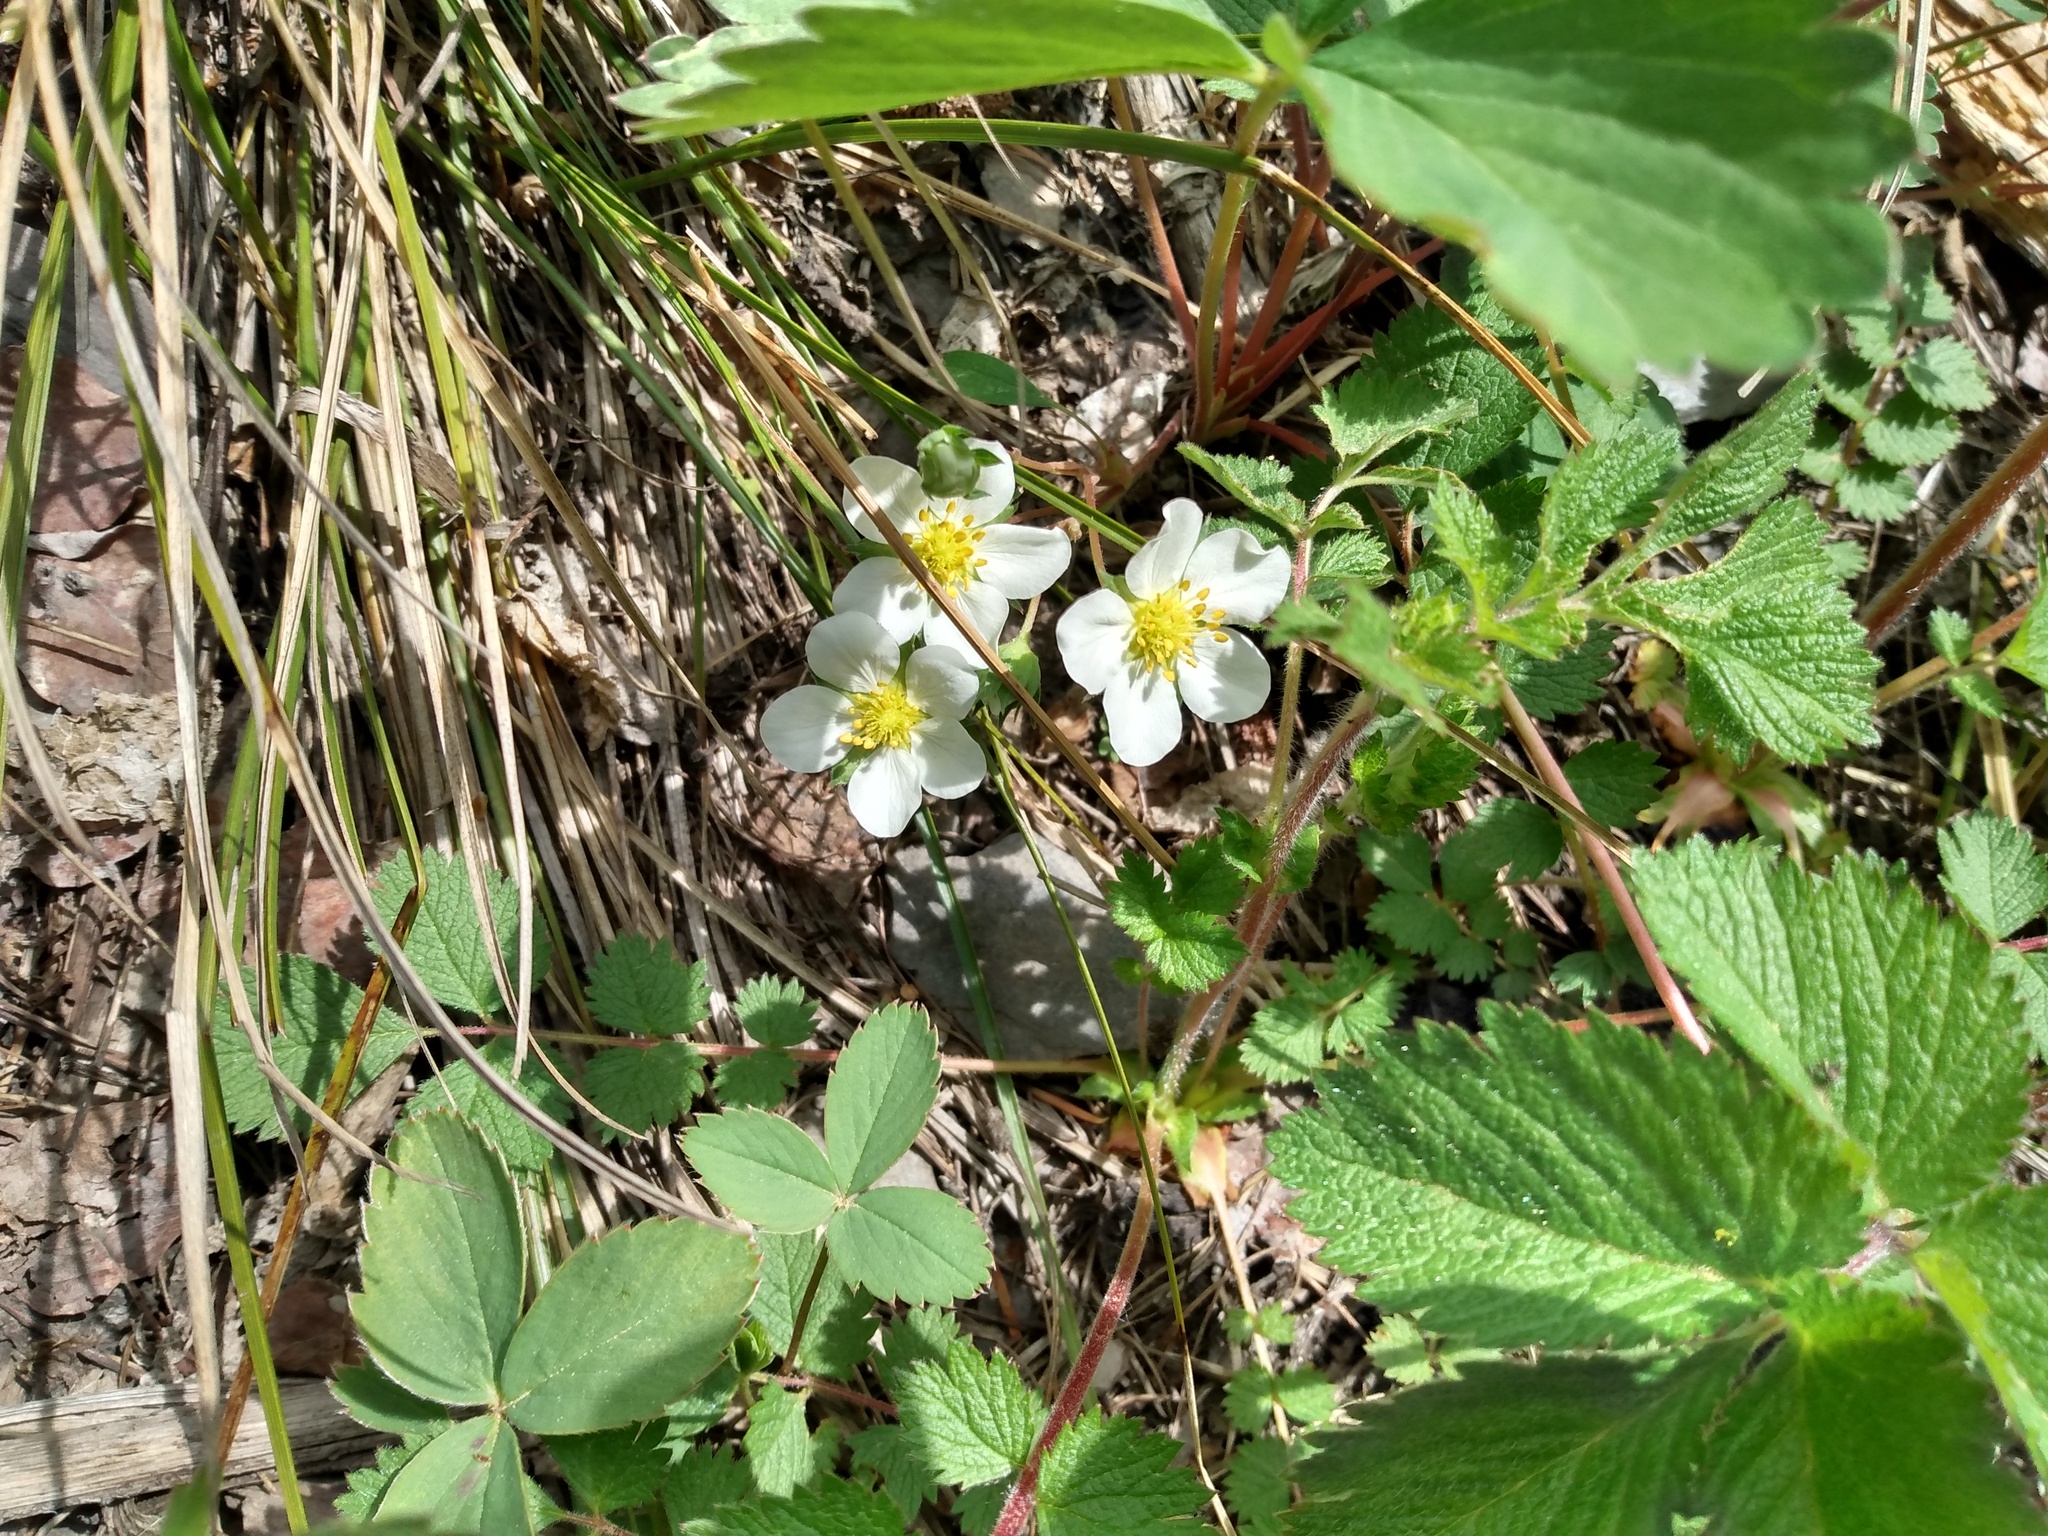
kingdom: Plantae
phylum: Tracheophyta
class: Magnoliopsida
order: Rosales
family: Rosaceae
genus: Fragaria
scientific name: Fragaria virginiana
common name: Thickleaved wild strawberry
